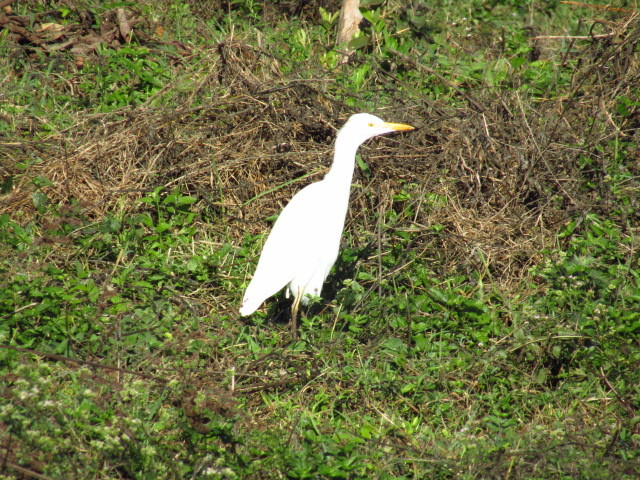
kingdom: Animalia
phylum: Chordata
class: Aves
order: Pelecaniformes
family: Ardeidae
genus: Bubulcus
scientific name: Bubulcus ibis
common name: Cattle egret
